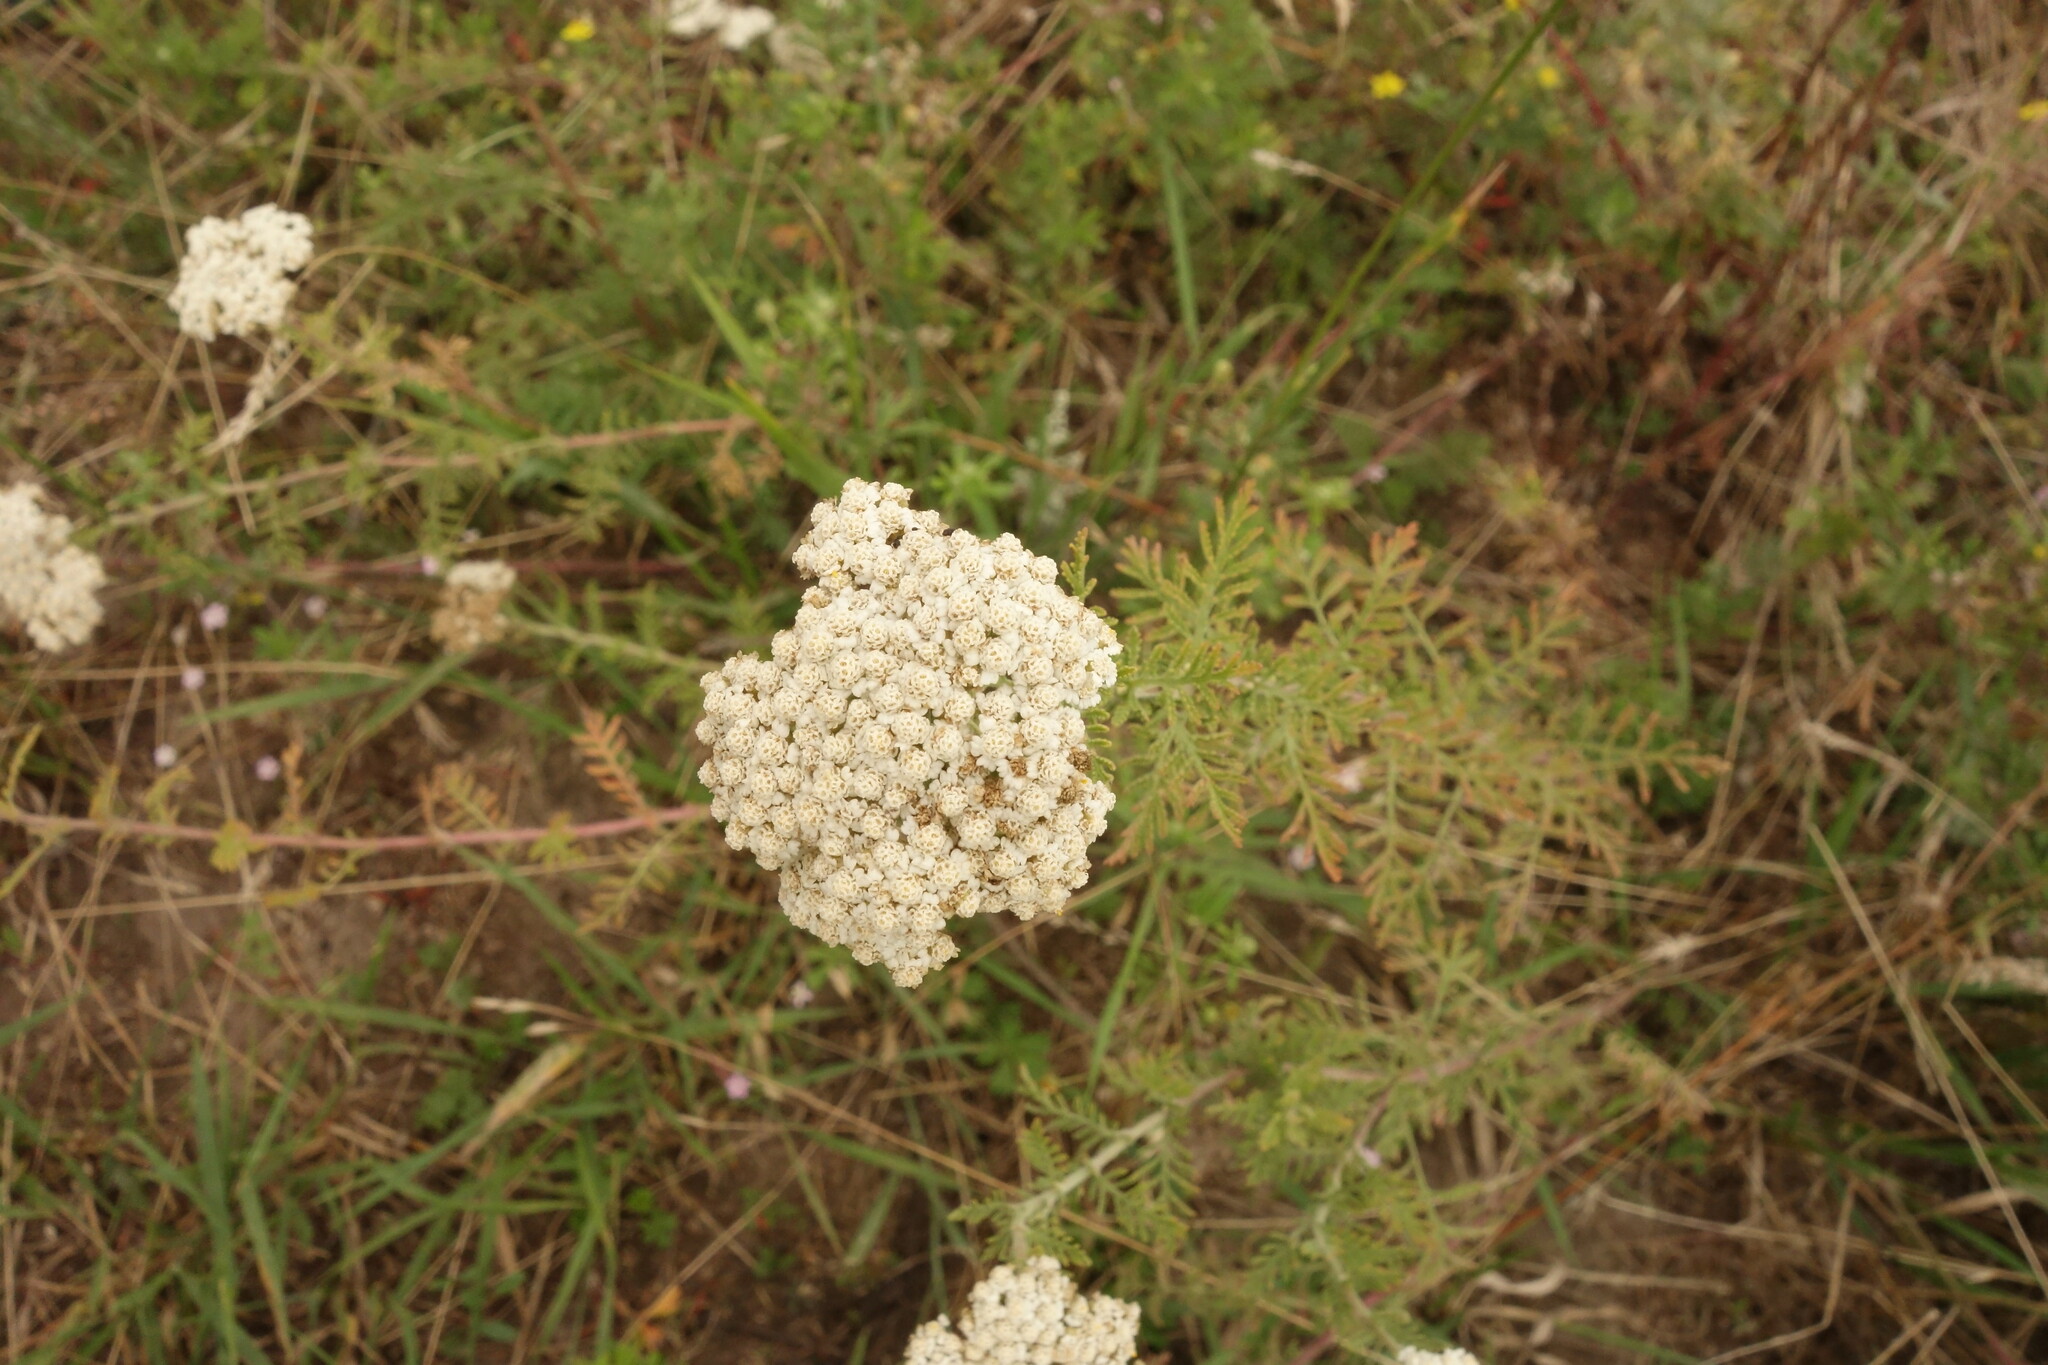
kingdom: Plantae
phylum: Tracheophyta
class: Magnoliopsida
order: Asterales
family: Asteraceae
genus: Achillea
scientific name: Achillea nobilis
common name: Noble yarrow
